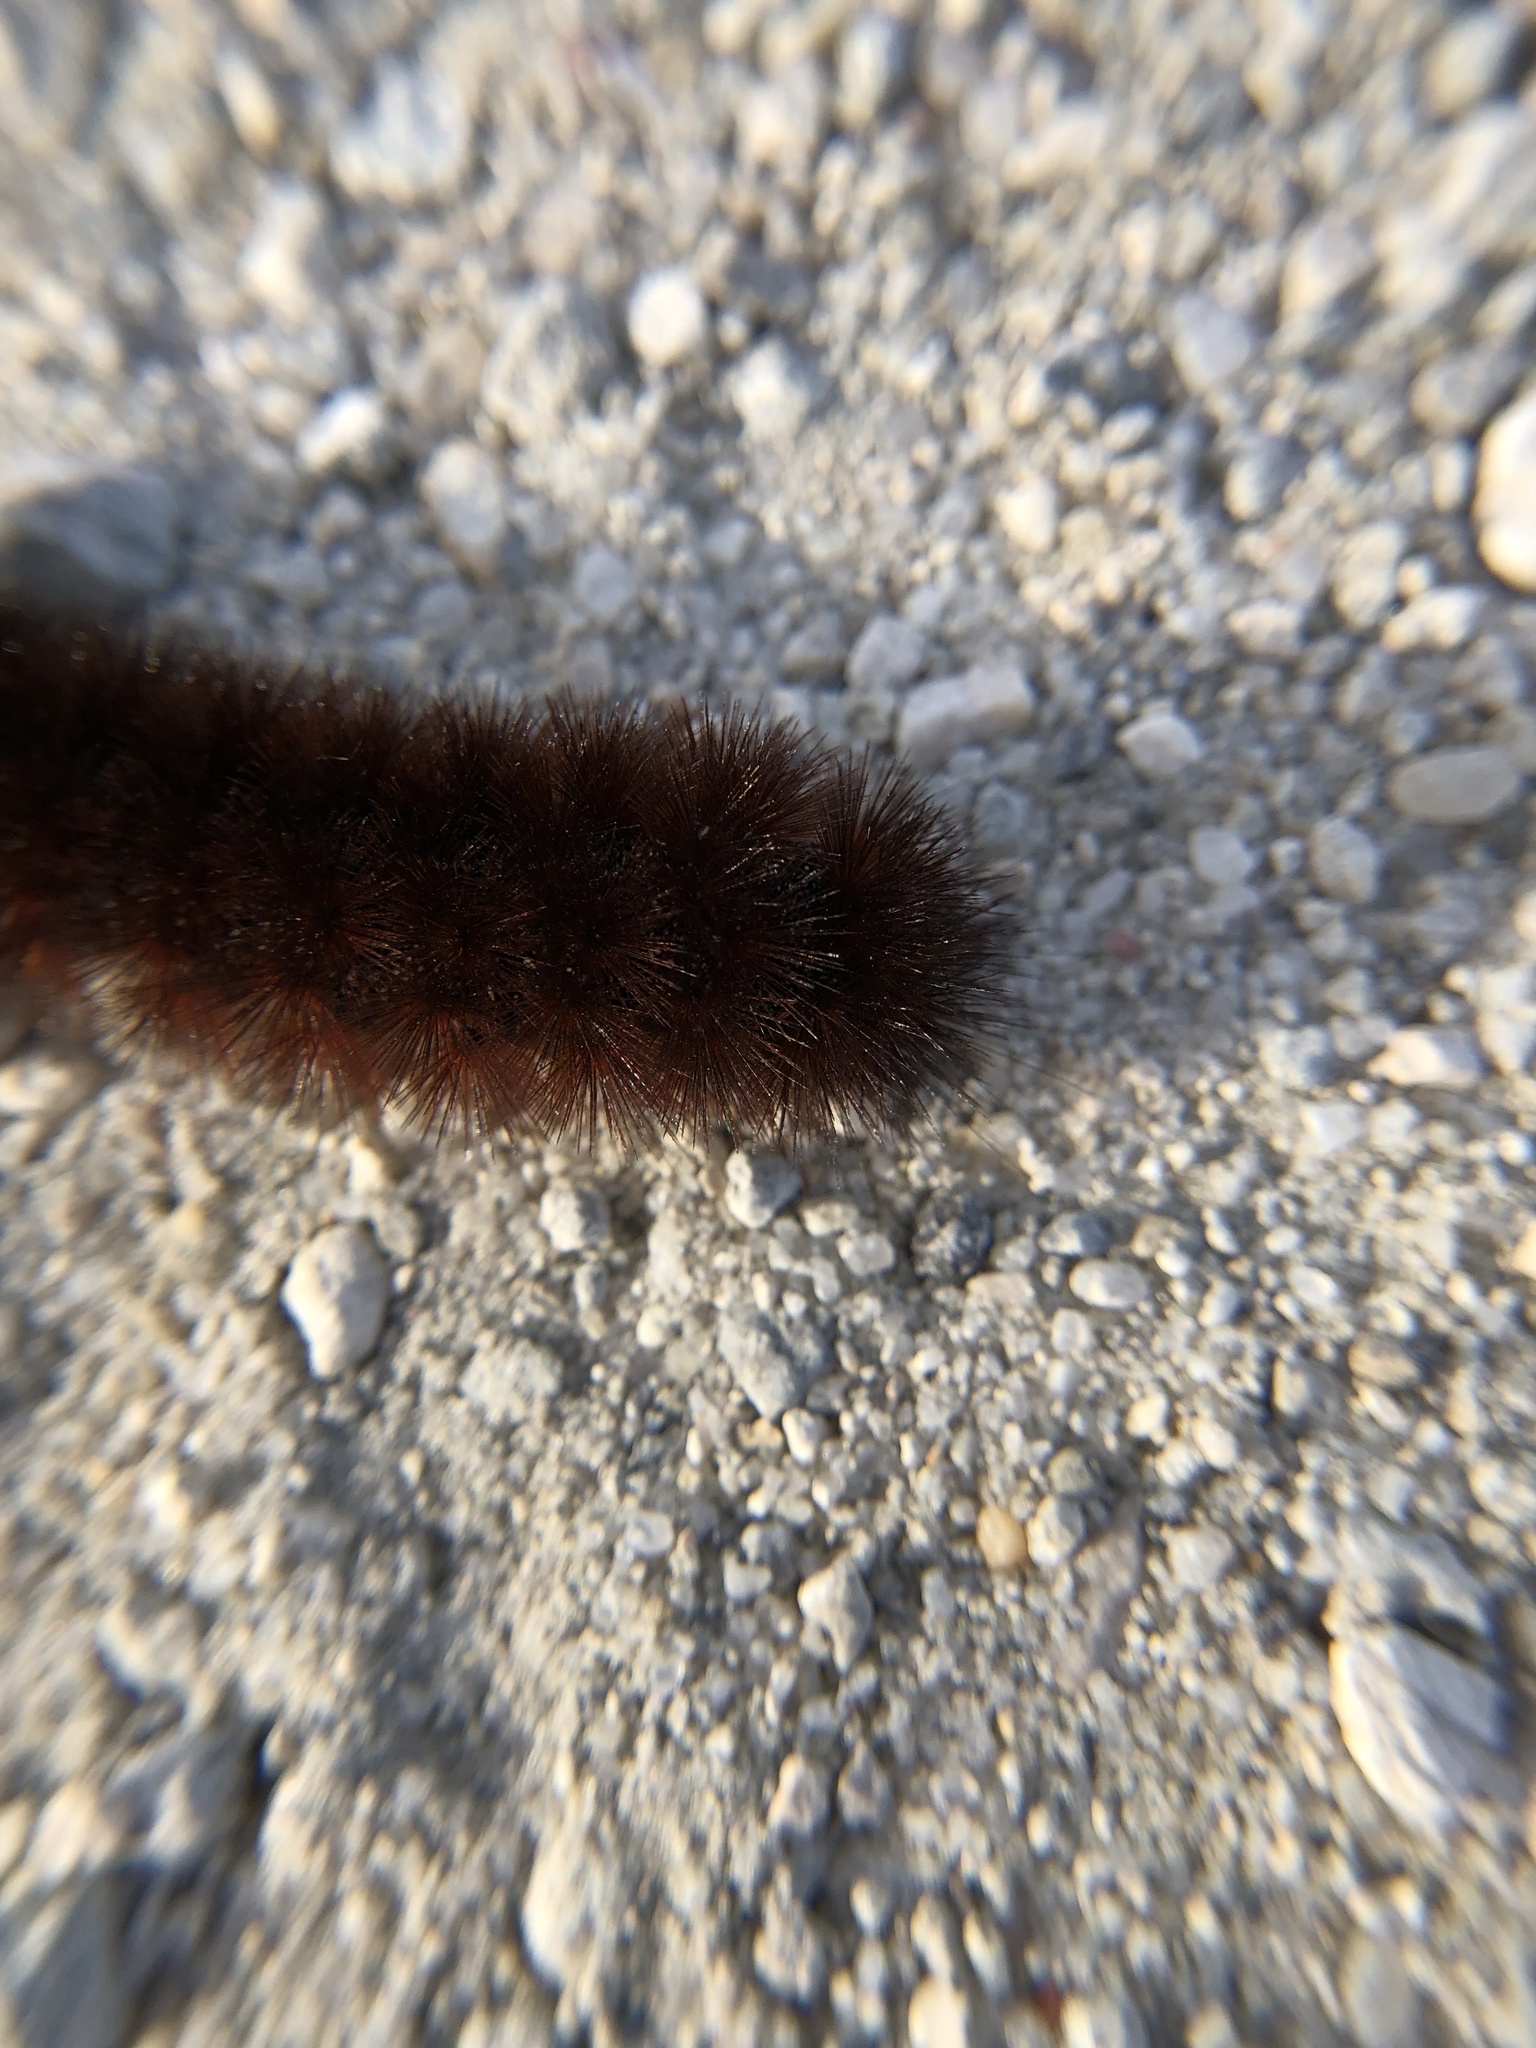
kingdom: Animalia
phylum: Arthropoda
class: Insecta
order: Lepidoptera
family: Erebidae
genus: Pyrrharctia
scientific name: Pyrrharctia isabella
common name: Isabella tiger moth
